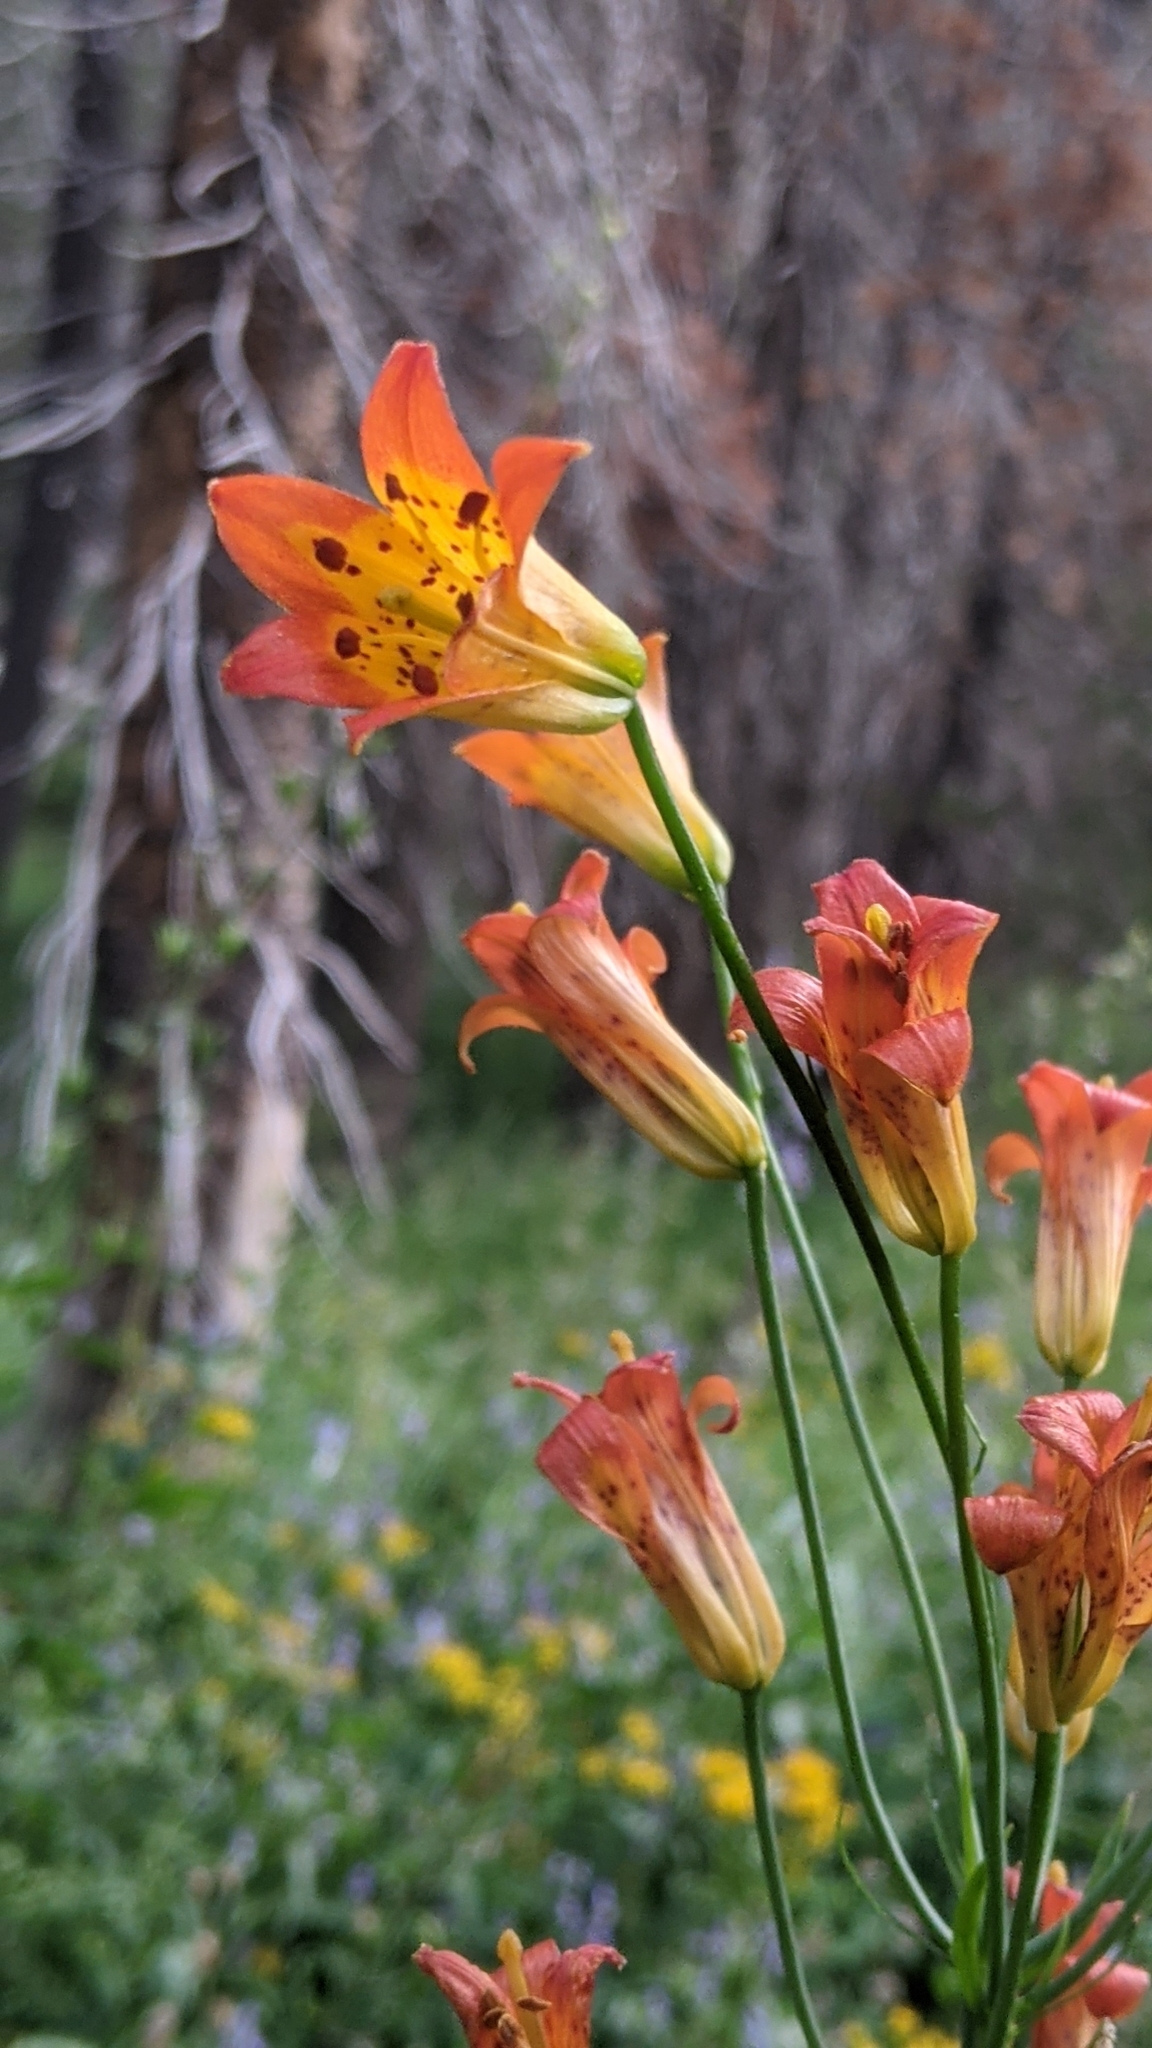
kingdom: Plantae
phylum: Tracheophyta
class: Liliopsida
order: Liliales
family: Liliaceae
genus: Lilium
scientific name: Lilium parvum
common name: Alpine lily
